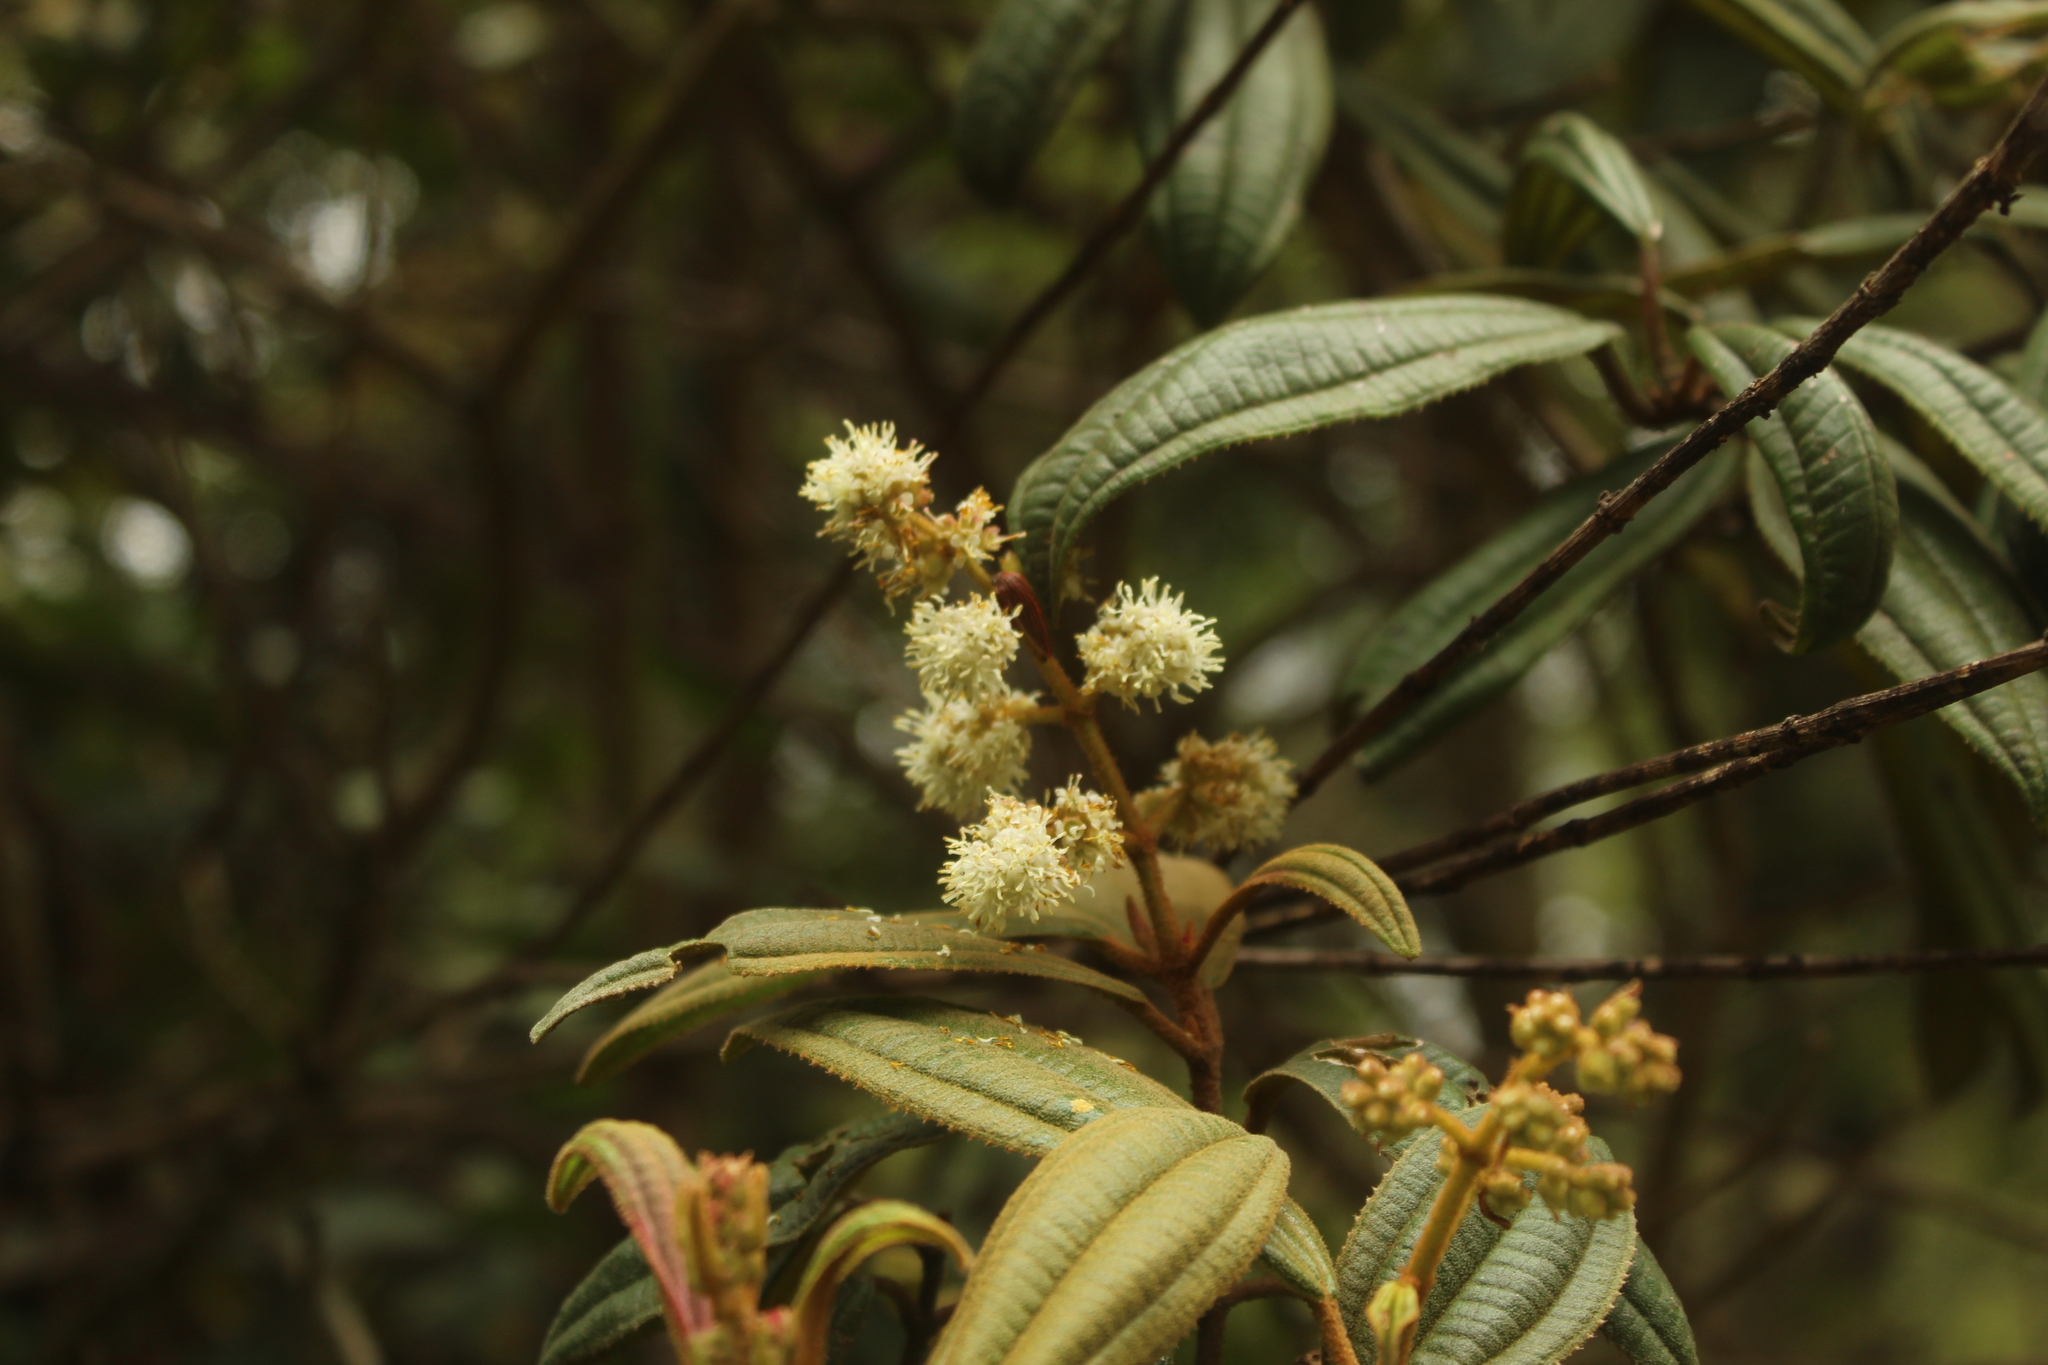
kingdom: Plantae
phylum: Tracheophyta
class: Magnoliopsida
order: Myrtales
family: Melastomataceae
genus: Miconia
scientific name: Miconia cataractae
